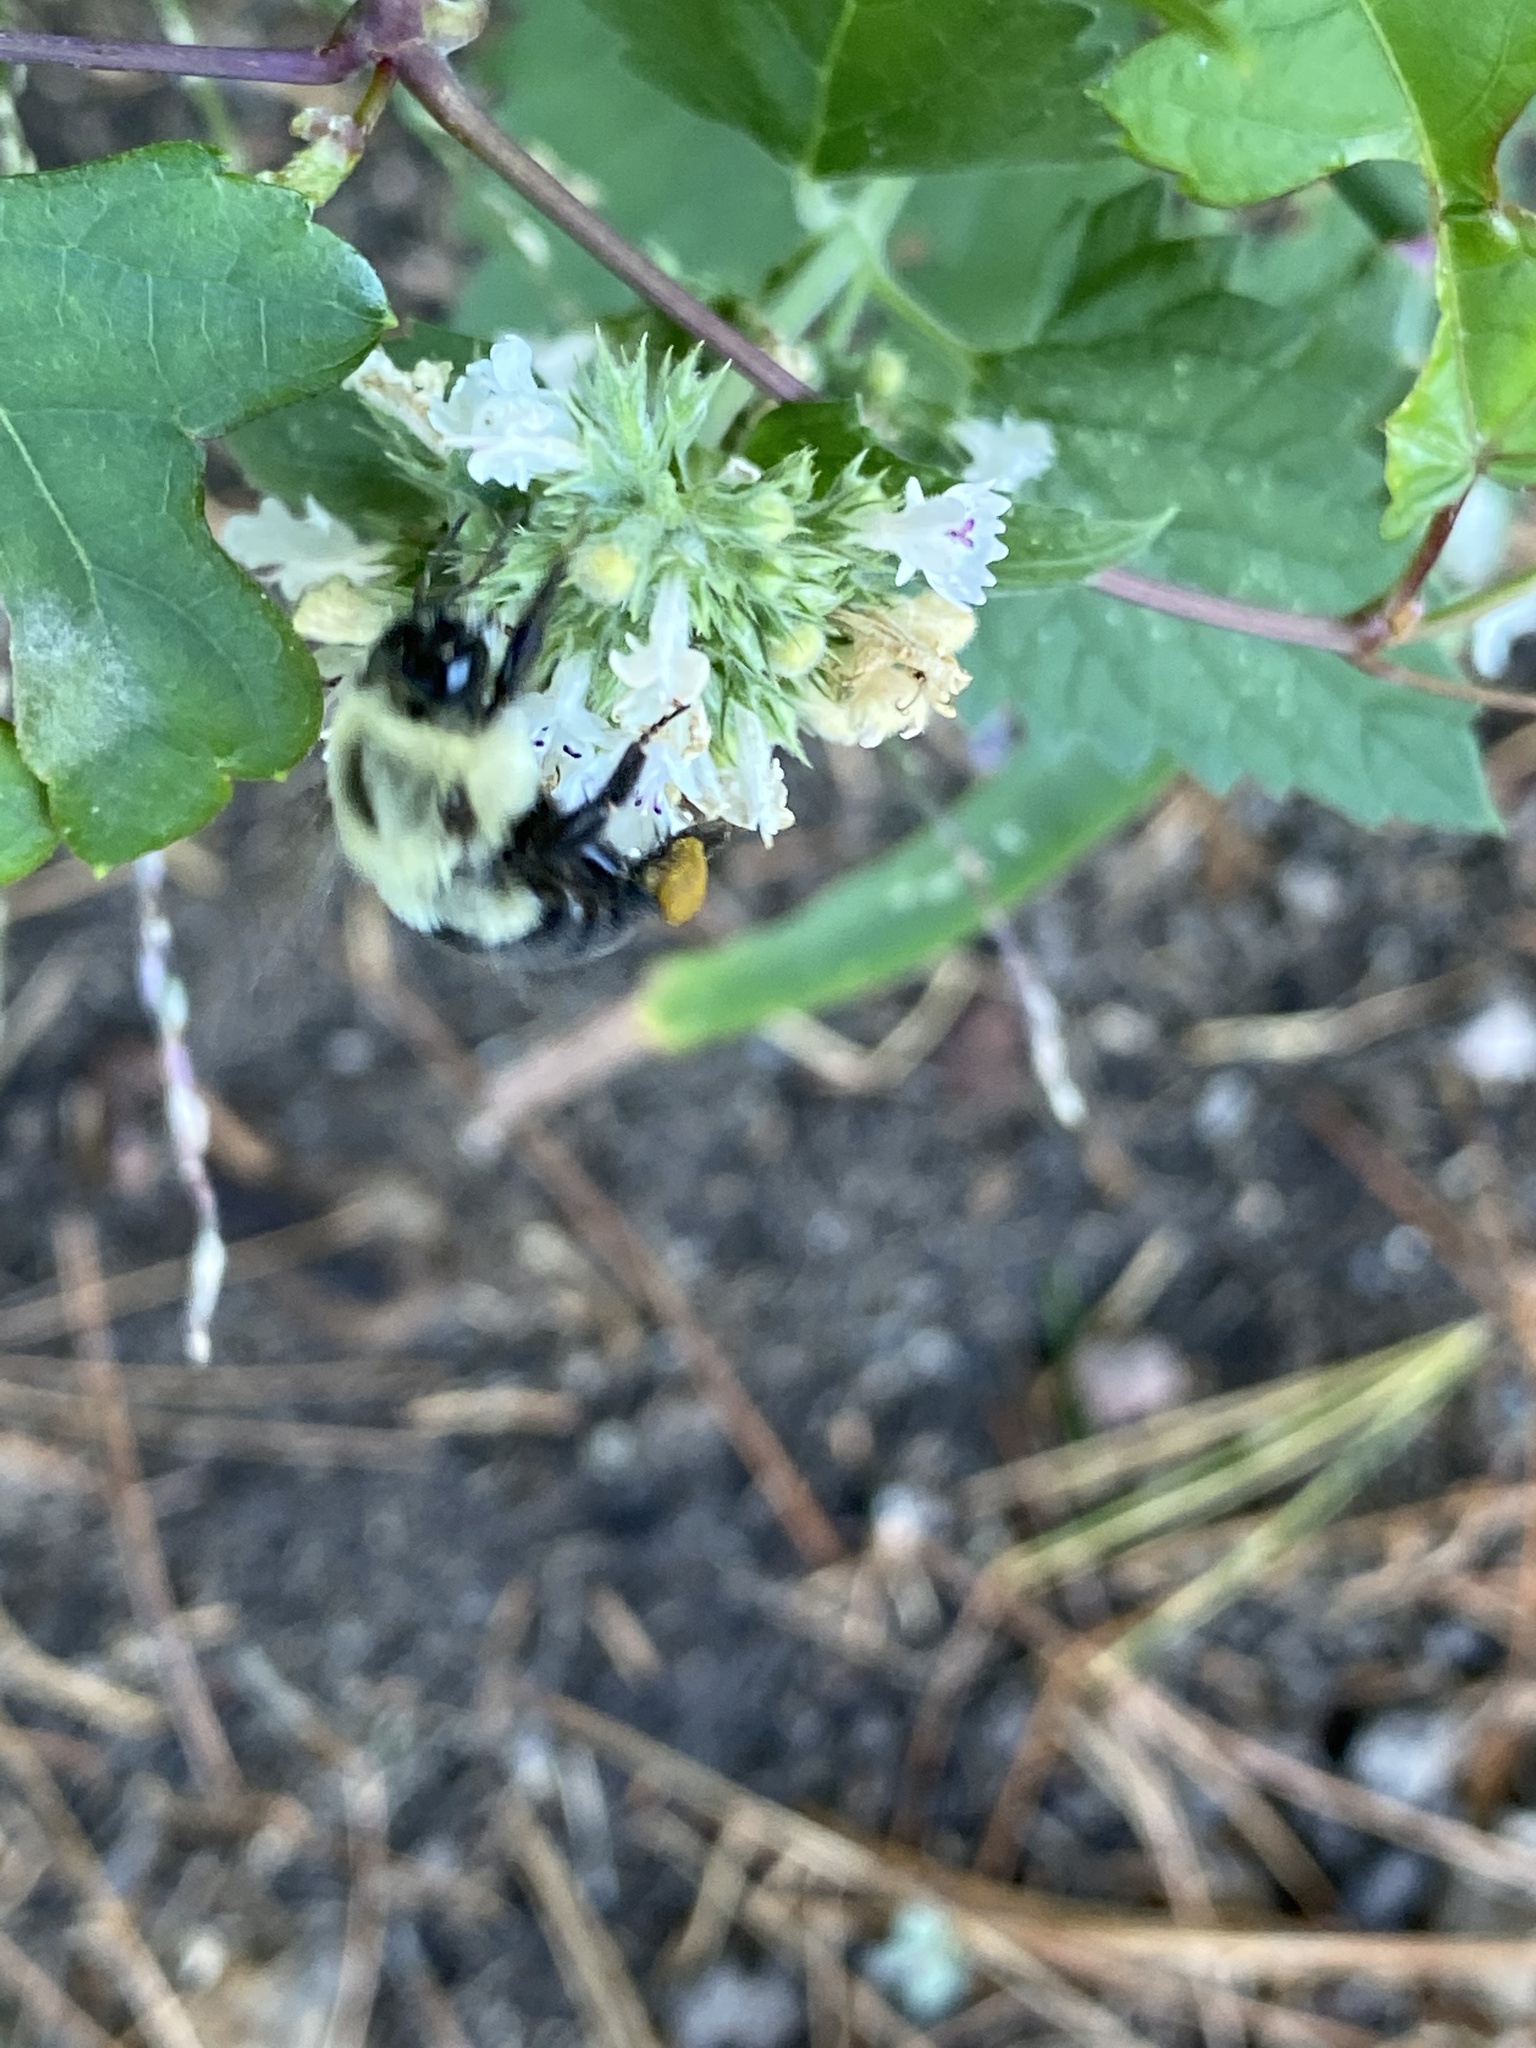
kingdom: Animalia
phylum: Arthropoda
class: Insecta
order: Hymenoptera
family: Apidae
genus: Bombus
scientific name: Bombus impatiens
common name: Common eastern bumble bee
